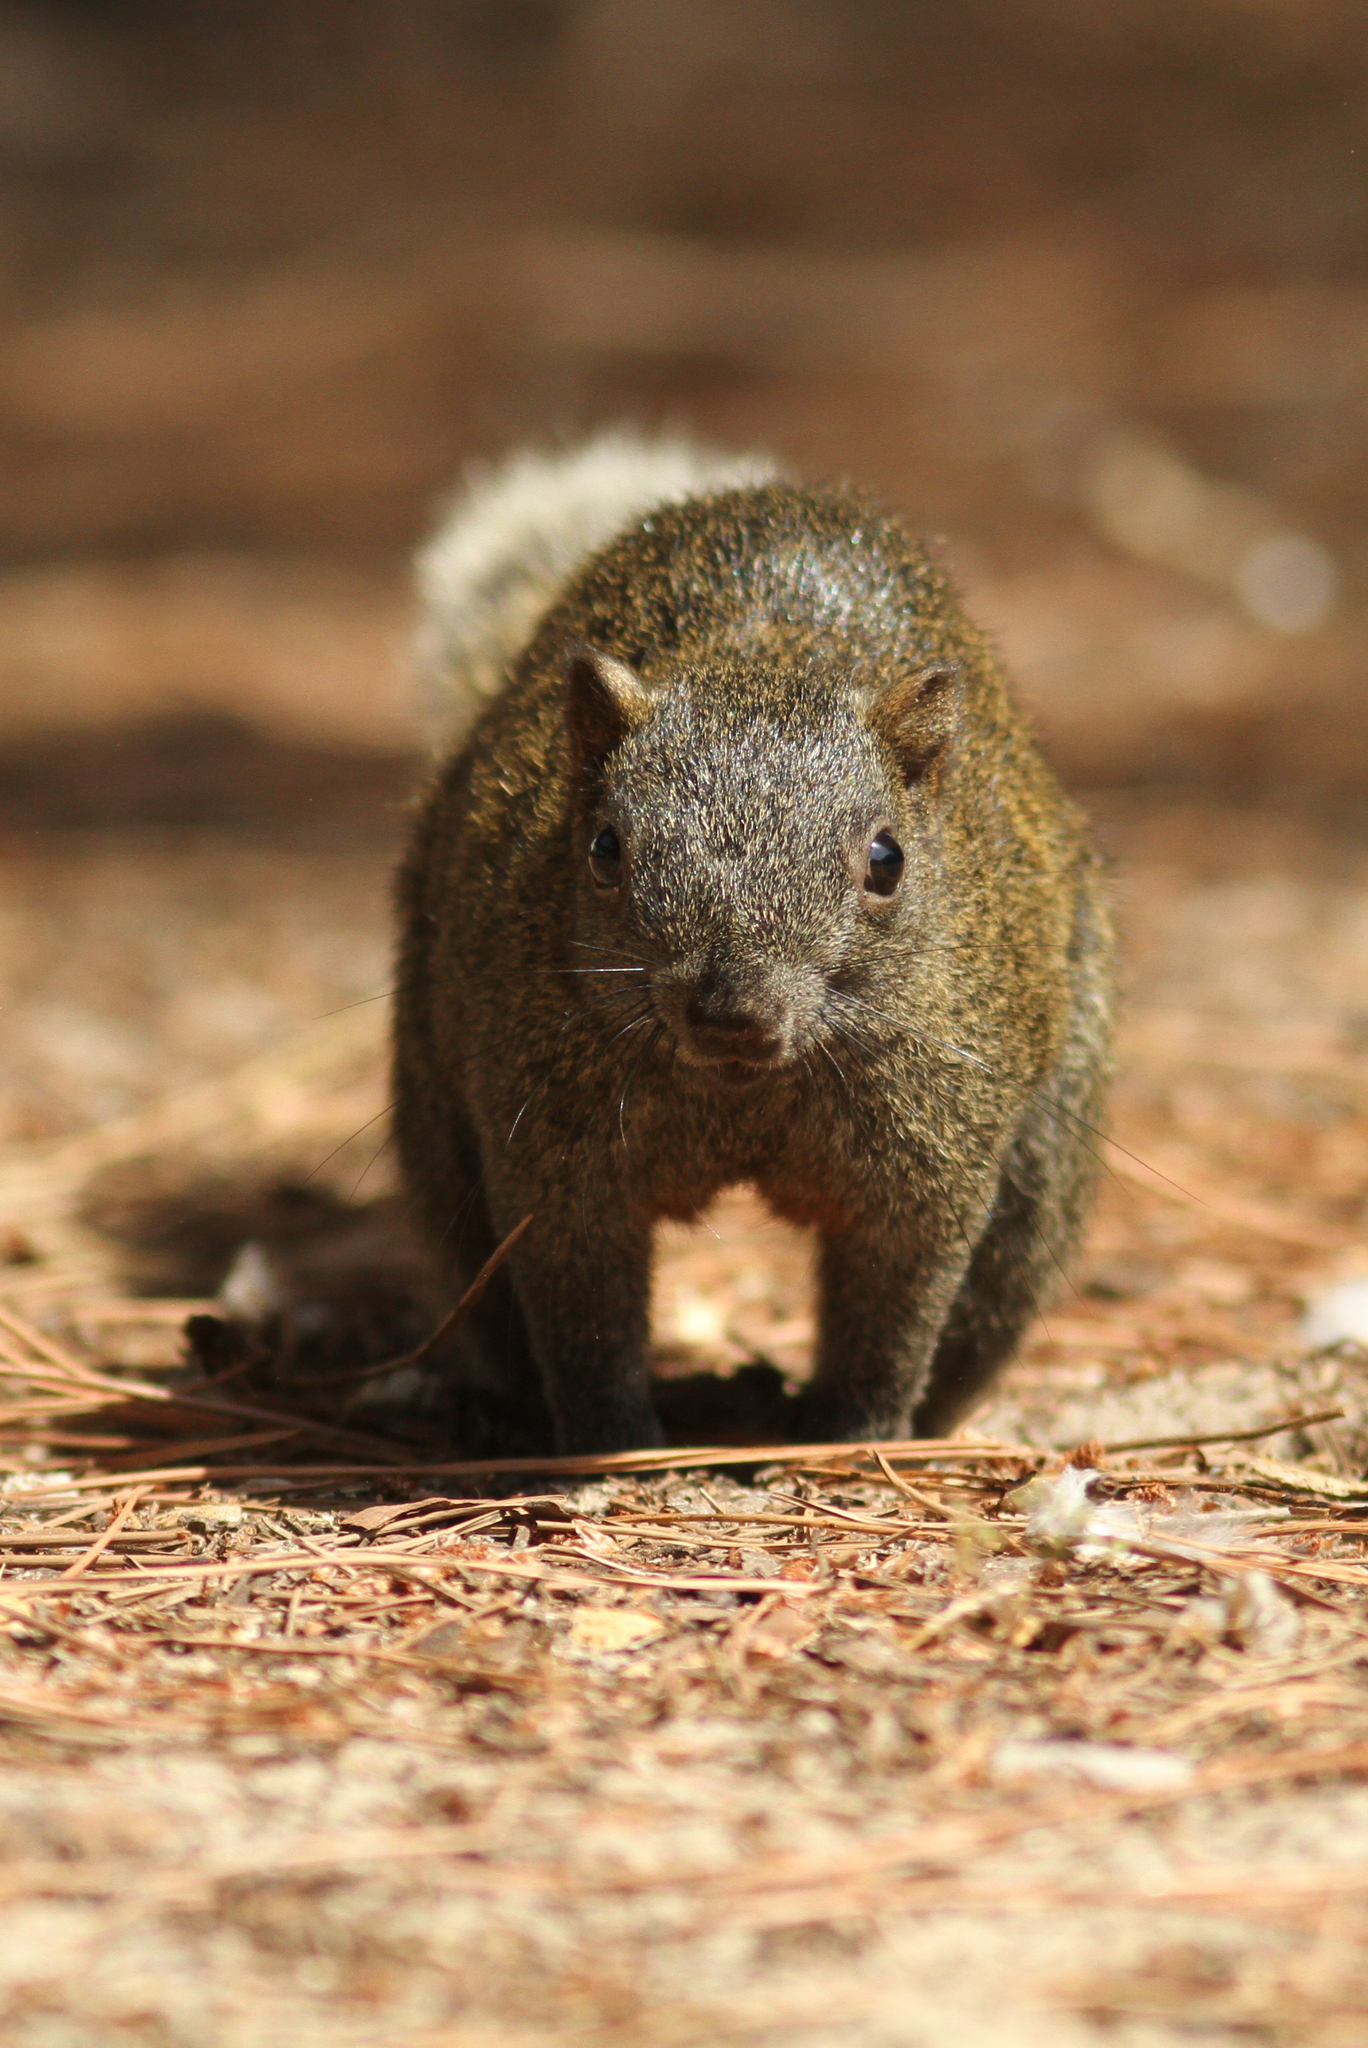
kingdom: Animalia
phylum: Chordata
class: Mammalia
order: Rodentia
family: Sciuridae
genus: Callosciurus
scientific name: Callosciurus erythraeus
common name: Pallas's squirrel
